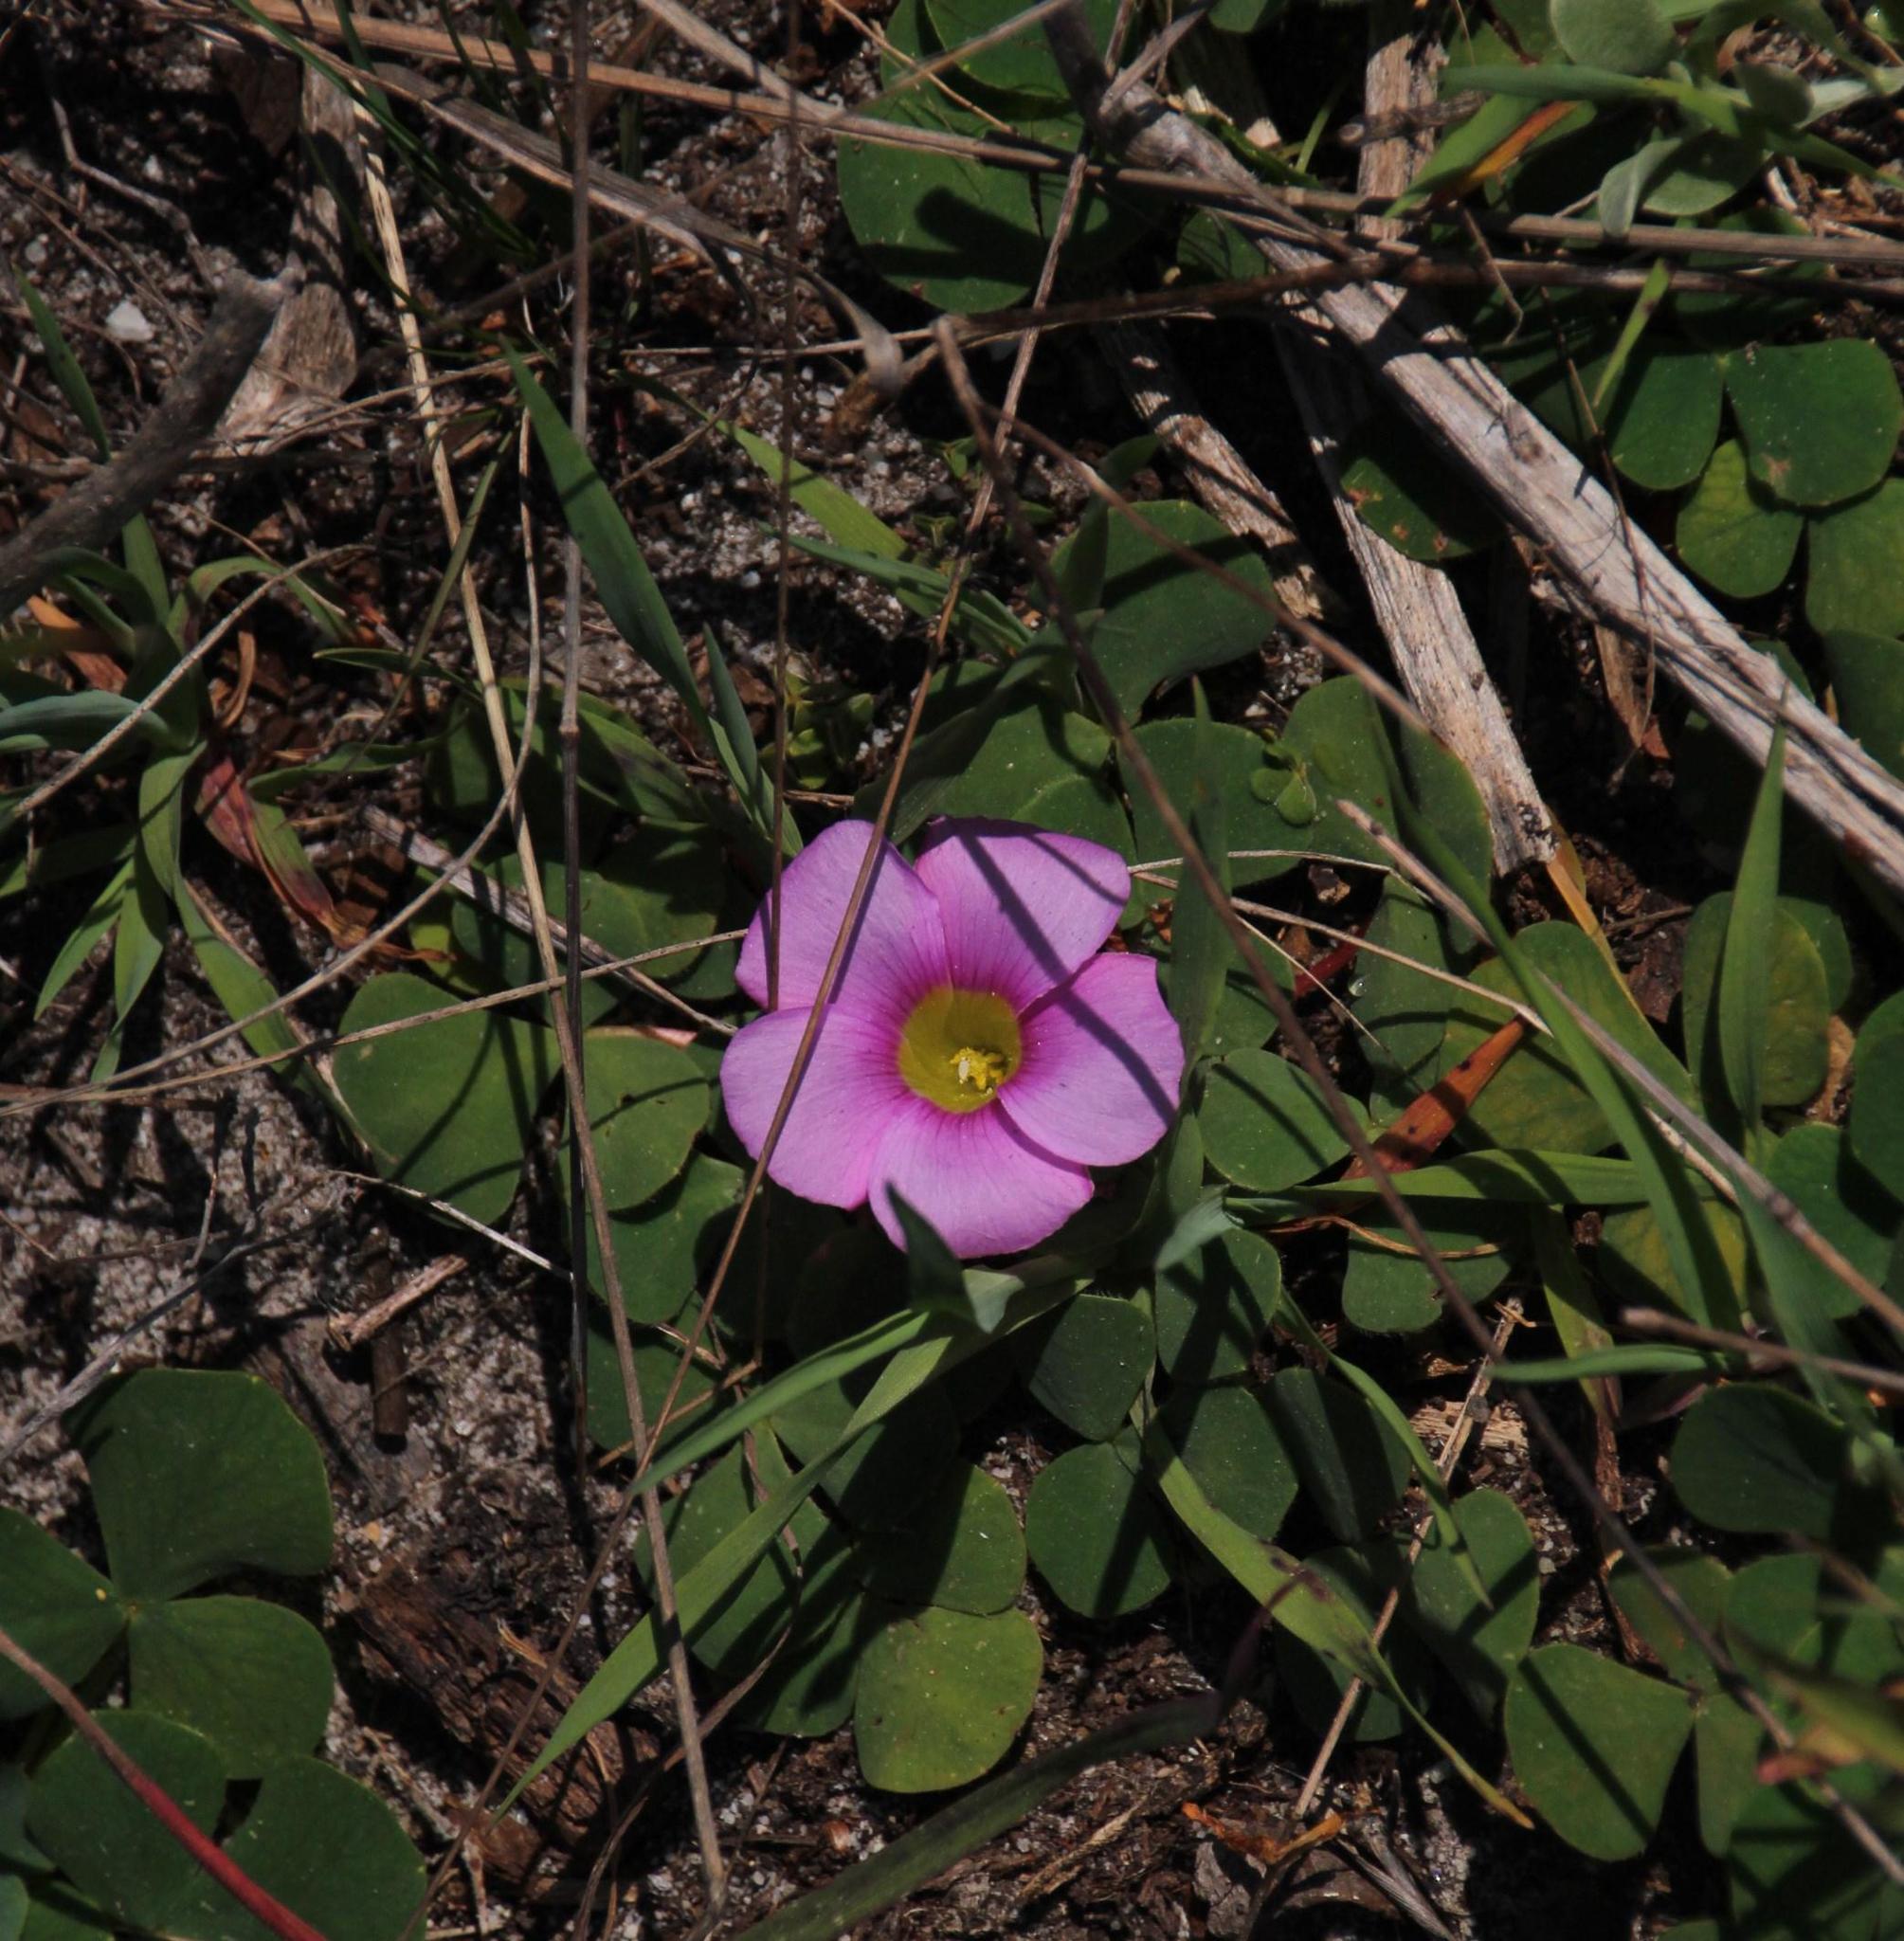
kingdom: Plantae
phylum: Tracheophyta
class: Magnoliopsida
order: Oxalidales
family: Oxalidaceae
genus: Oxalis
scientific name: Oxalis purpurea
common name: Purple woodsorrel
